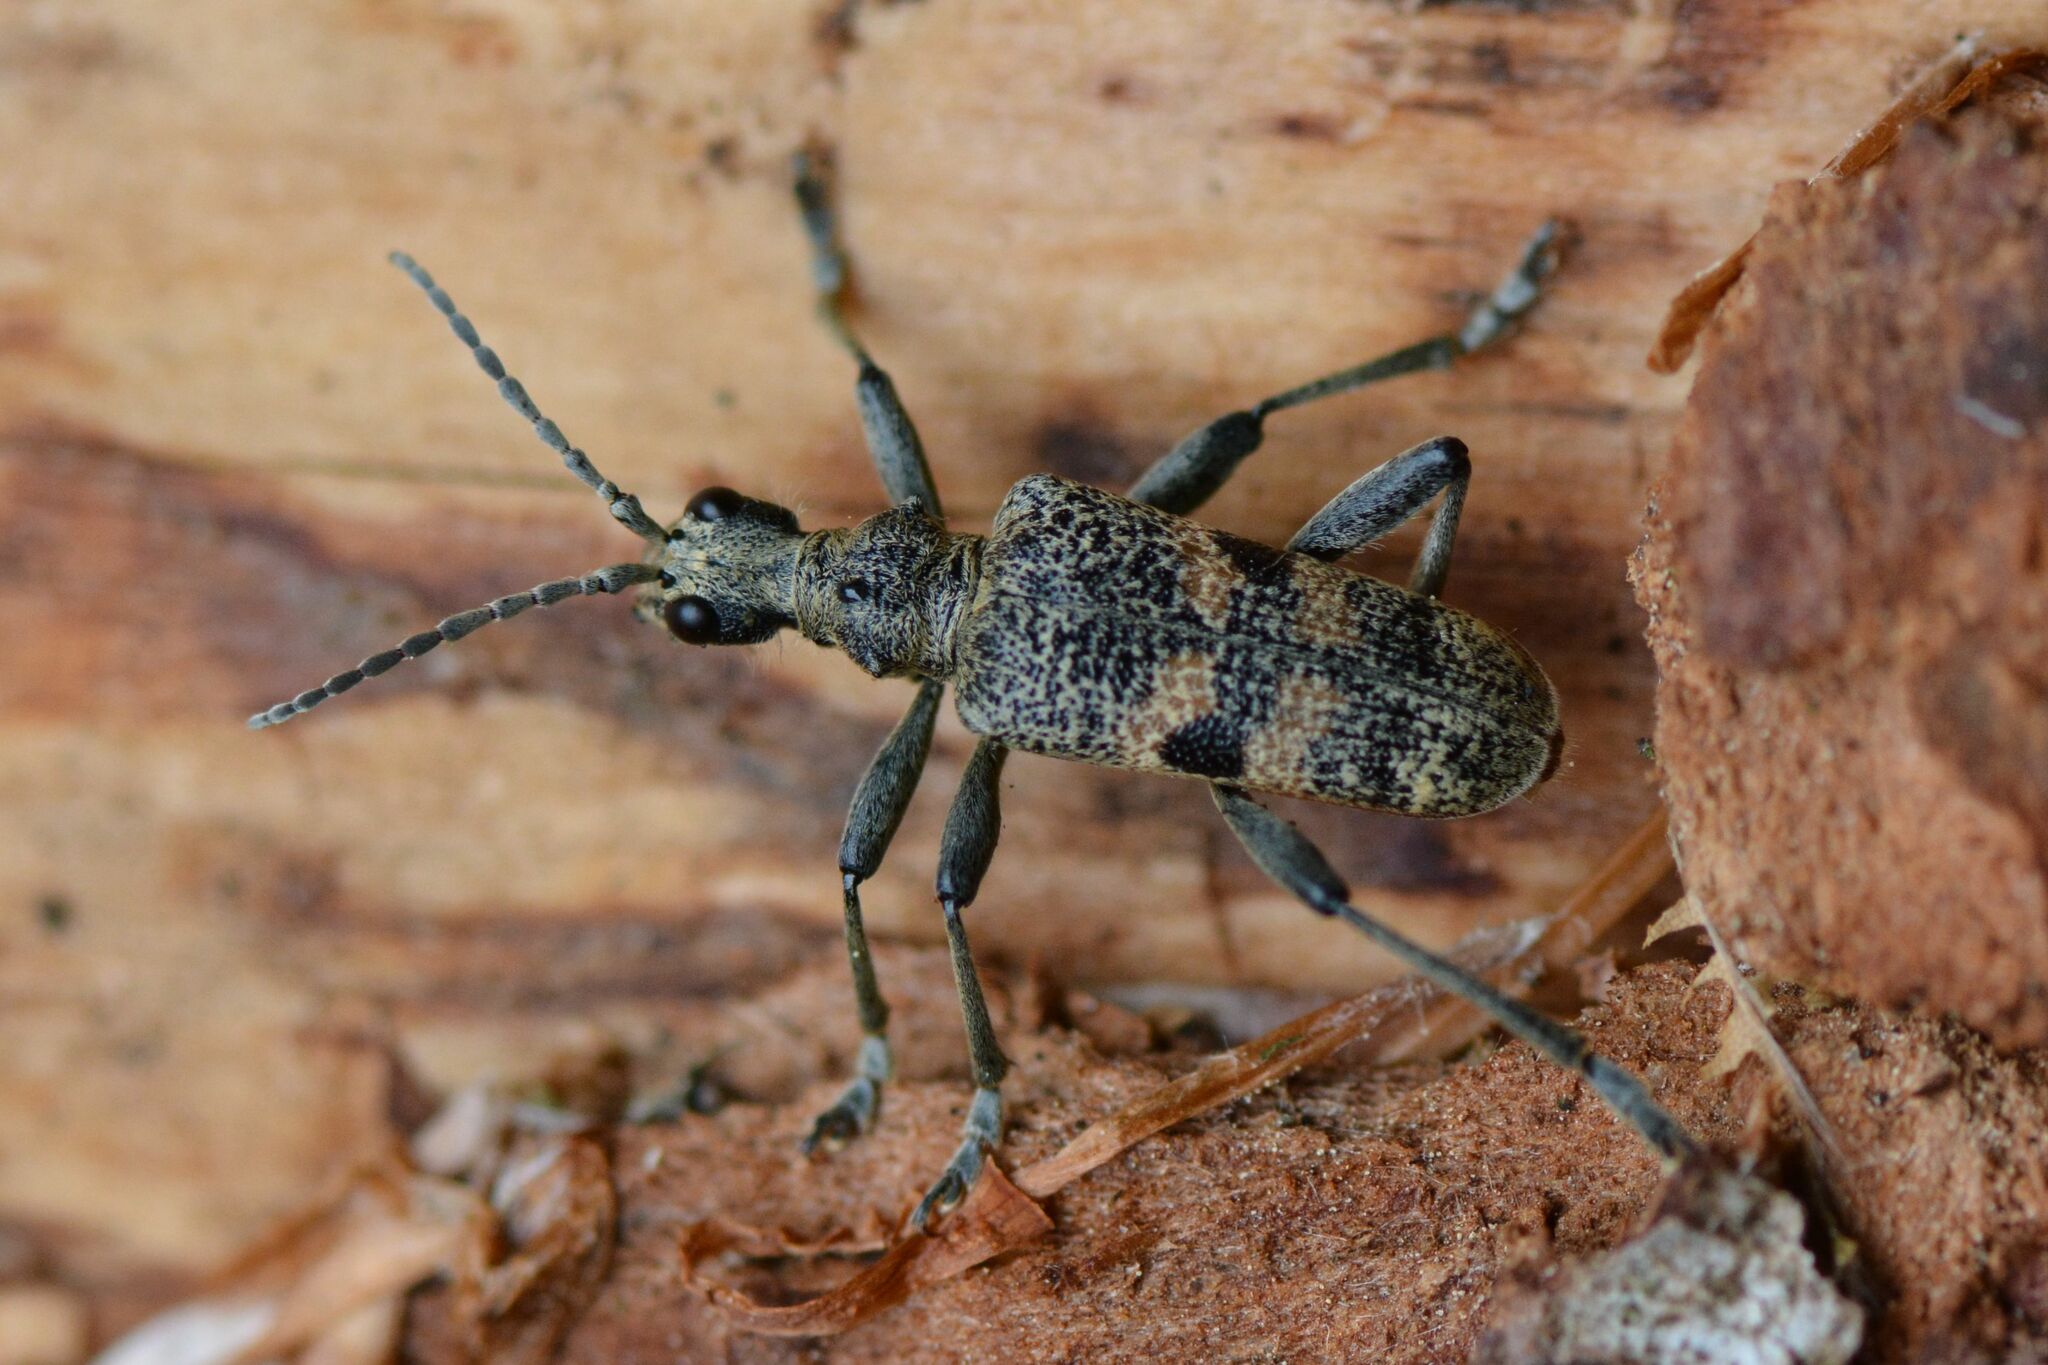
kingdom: Animalia
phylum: Arthropoda
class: Insecta
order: Coleoptera
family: Cerambycidae
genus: Rhagium
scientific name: Rhagium mordax
